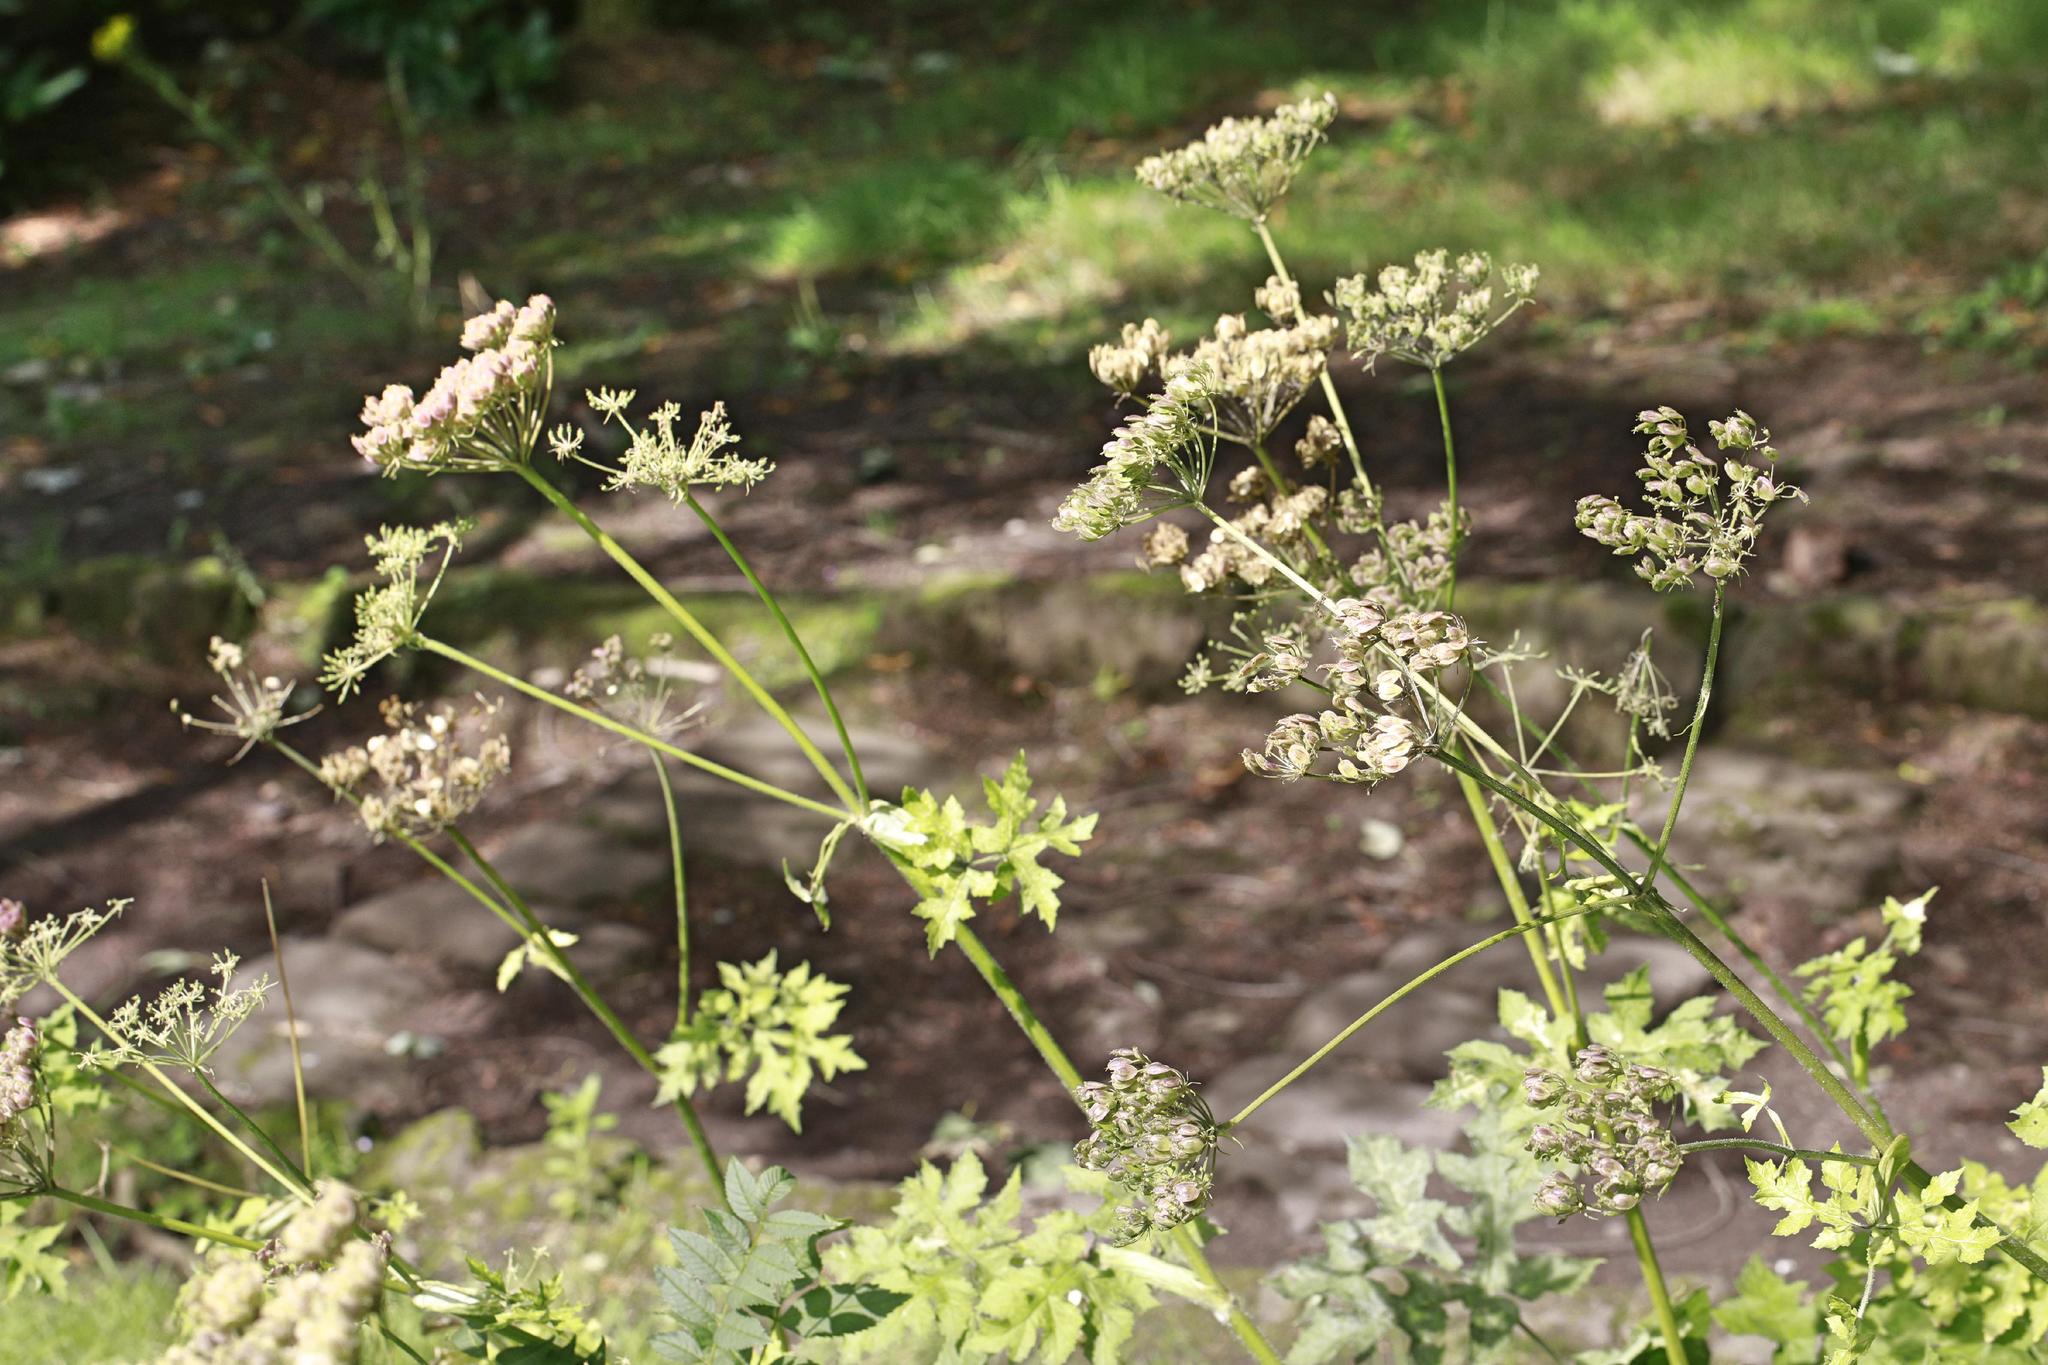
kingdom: Plantae
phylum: Tracheophyta
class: Magnoliopsida
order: Apiales
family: Apiaceae
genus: Heracleum
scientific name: Heracleum sphondylium
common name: Hogweed
